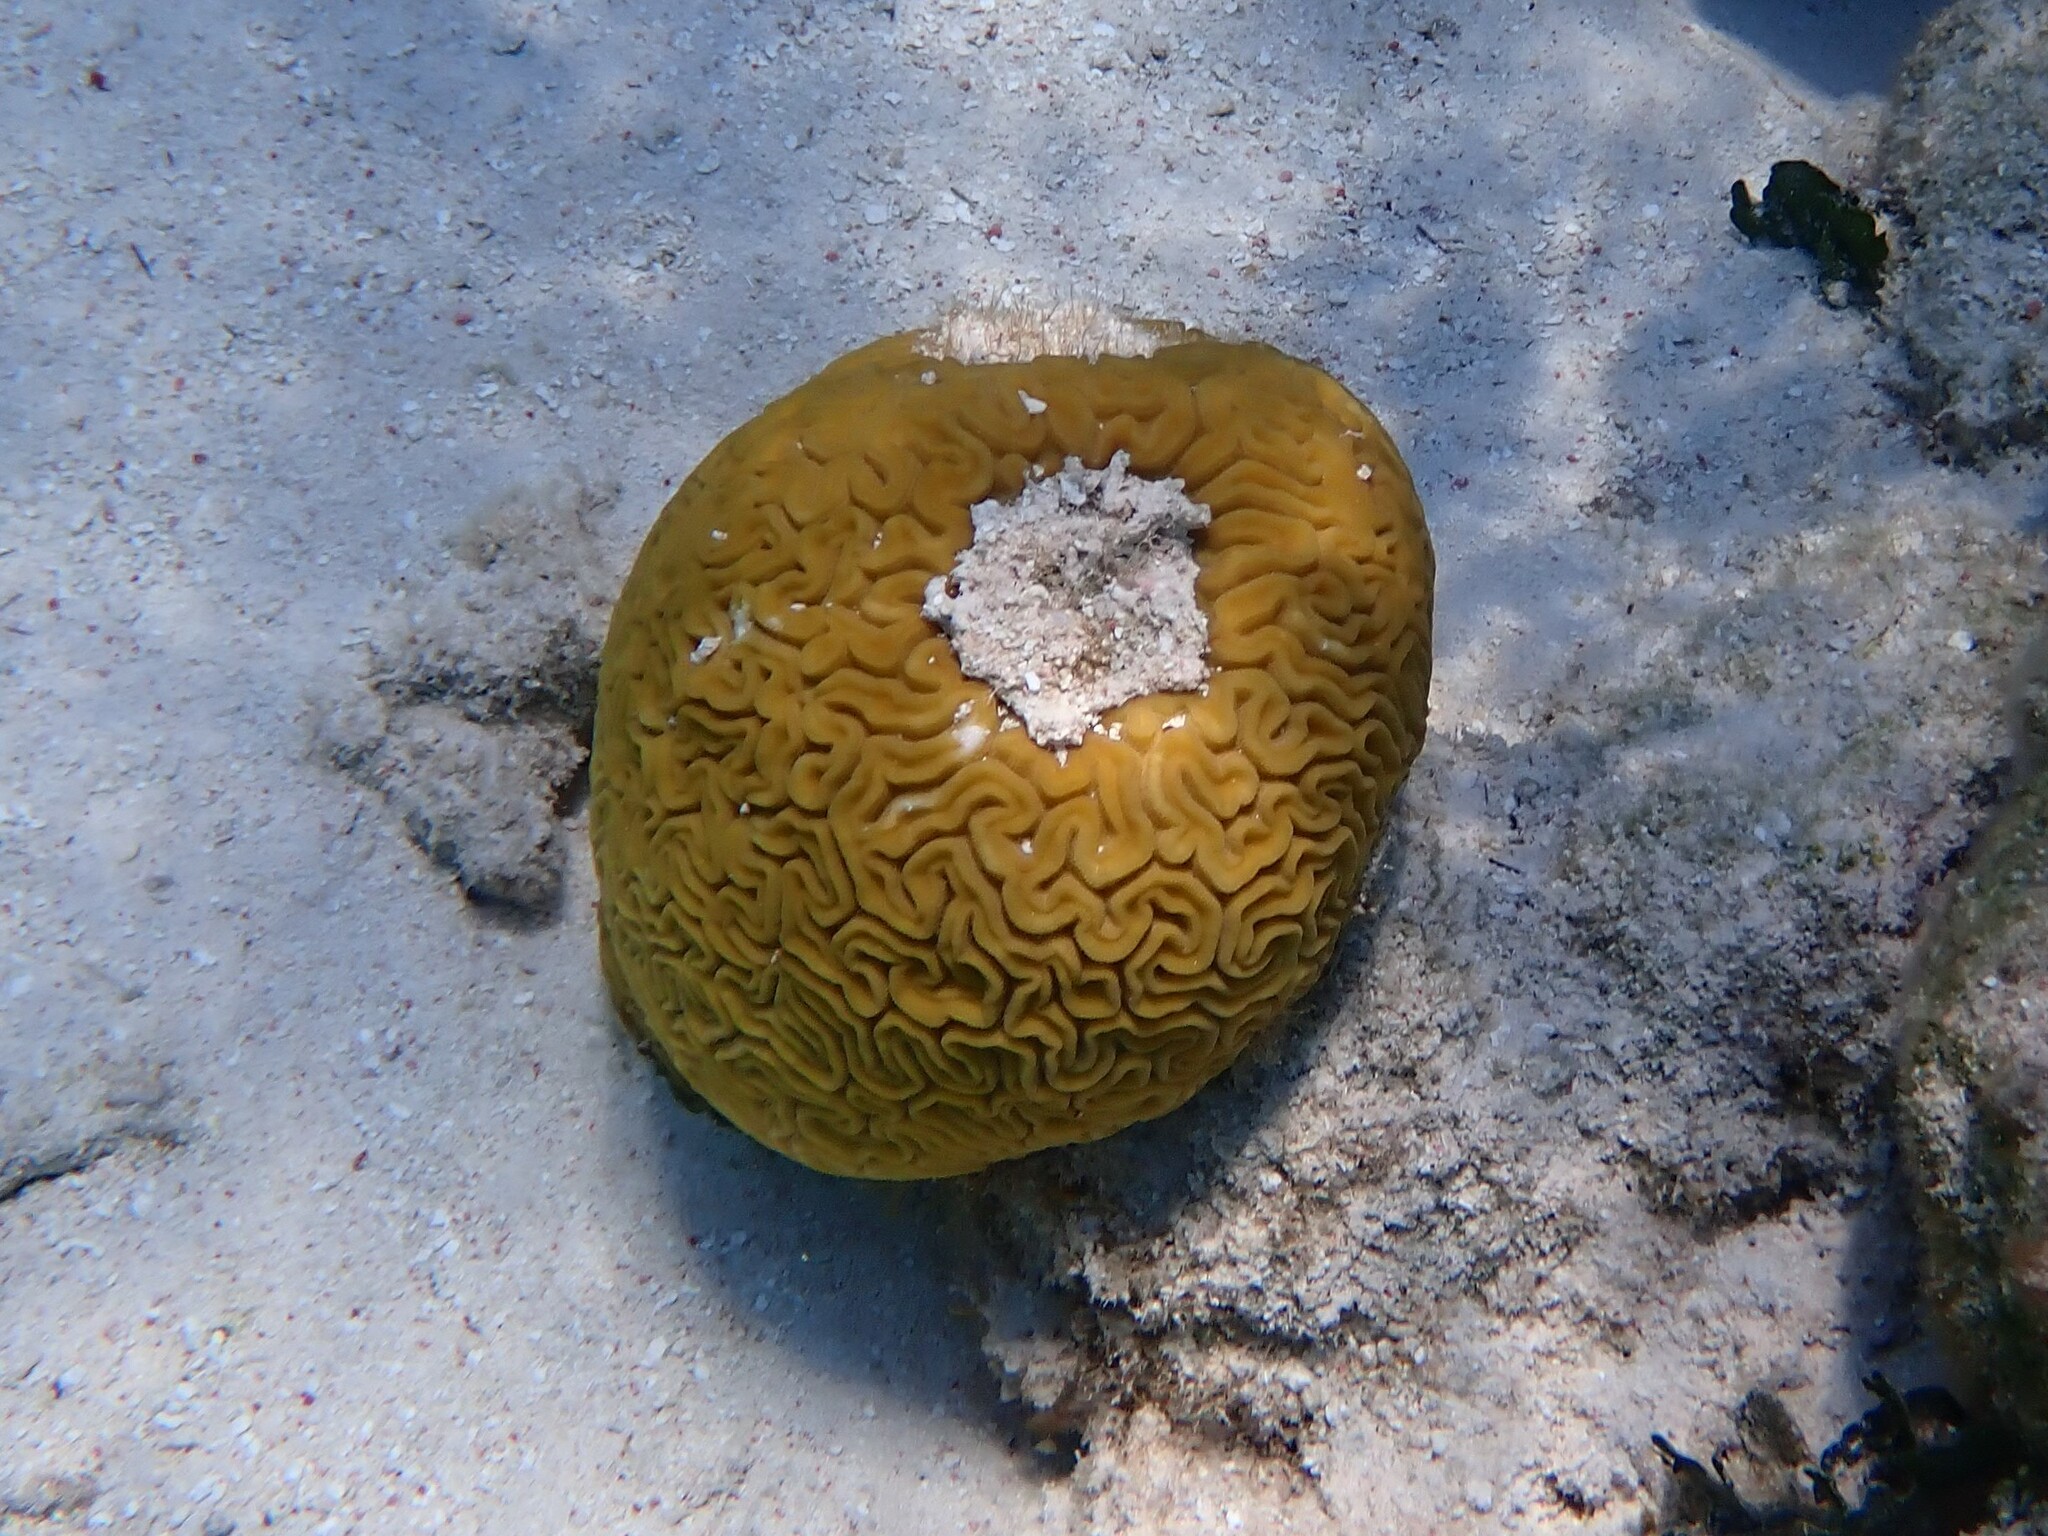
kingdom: Animalia
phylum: Cnidaria
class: Anthozoa
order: Scleractinia
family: Faviidae
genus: Diploria
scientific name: Diploria labyrinthiformis
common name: Grooved brain coral
